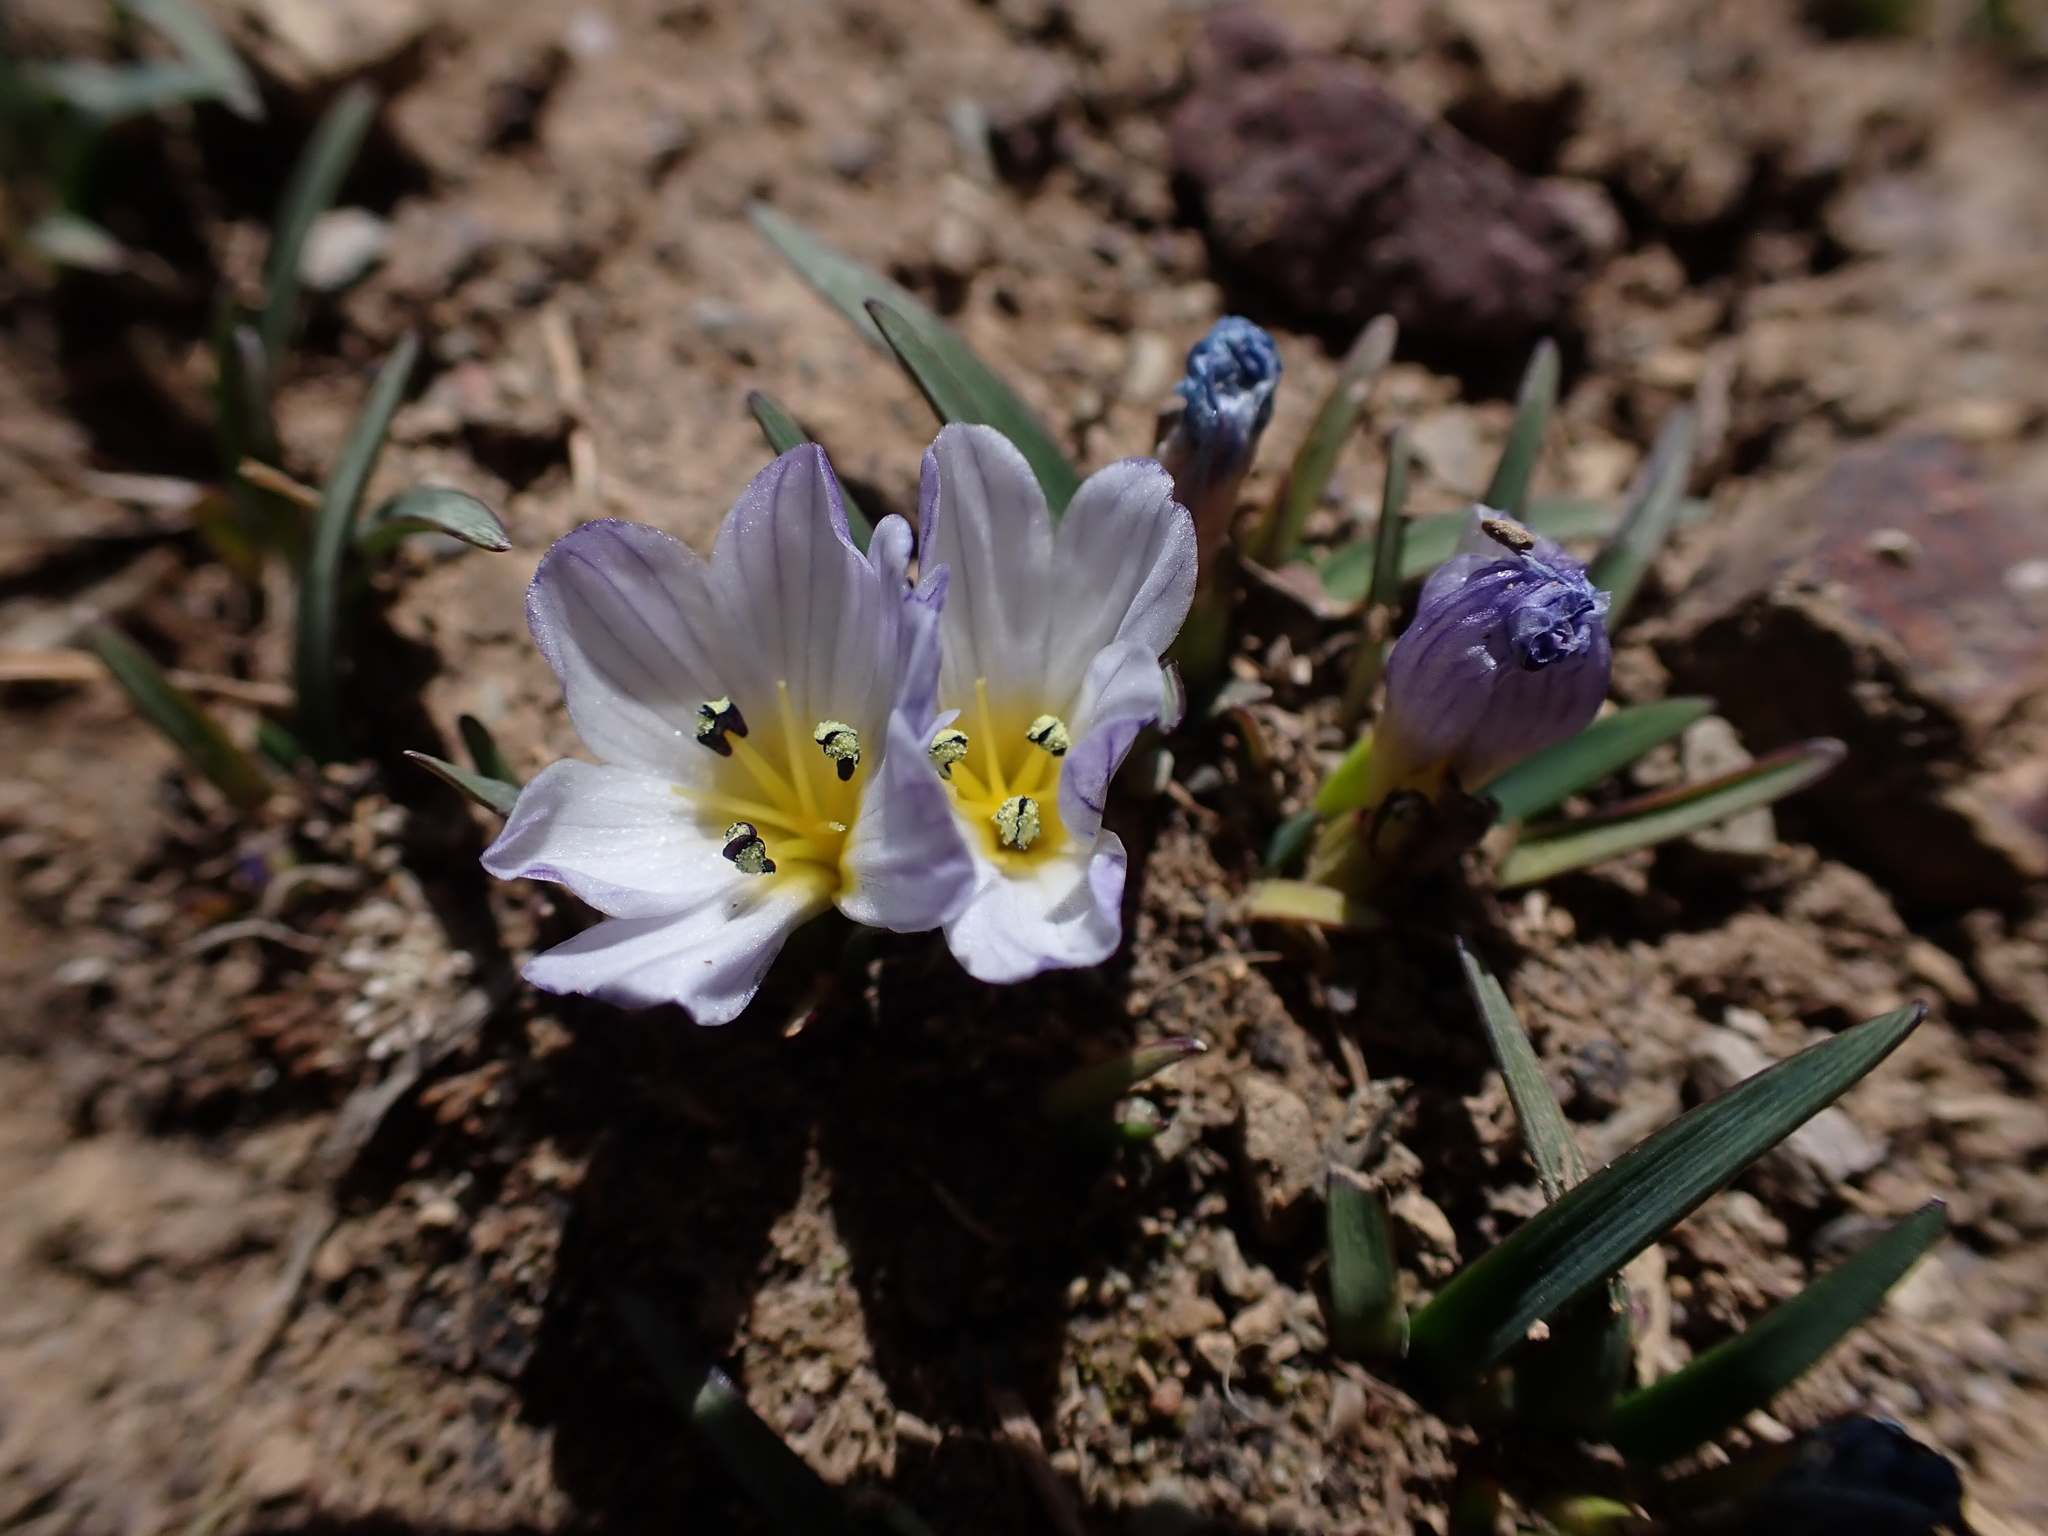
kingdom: Plantae
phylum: Tracheophyta
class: Liliopsida
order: Asparagales
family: Iridaceae
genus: Olsynium
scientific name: Olsynium acaule
